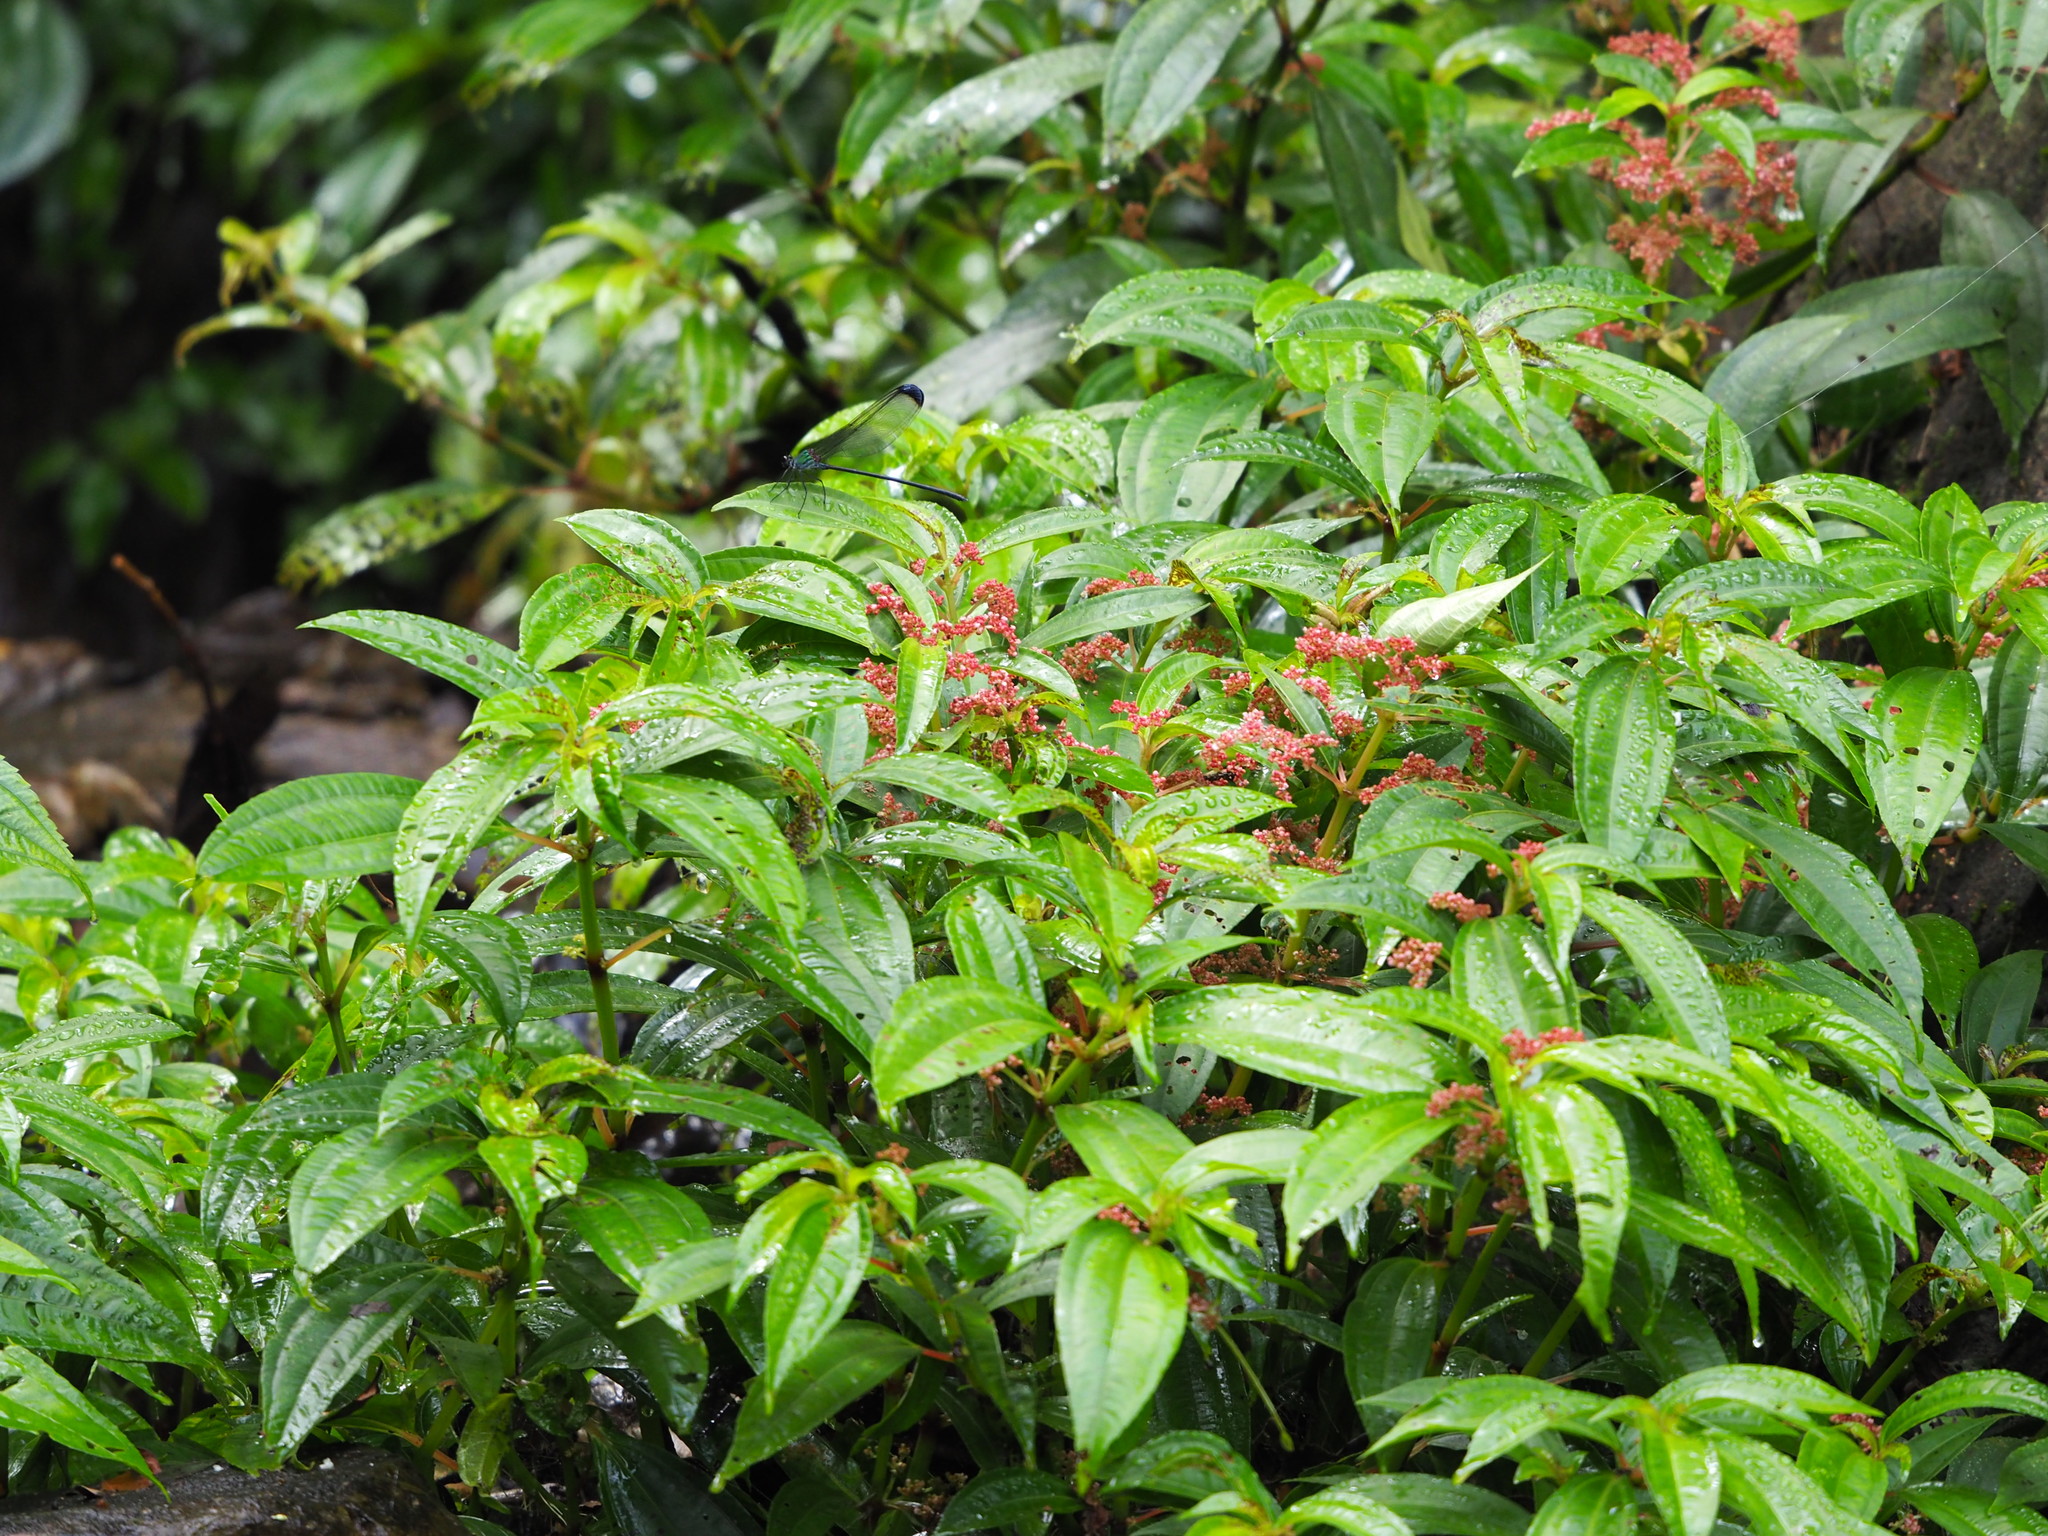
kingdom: Plantae
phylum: Tracheophyta
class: Magnoliopsida
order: Rosales
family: Urticaceae
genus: Pilea
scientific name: Pilea rotundinucula
